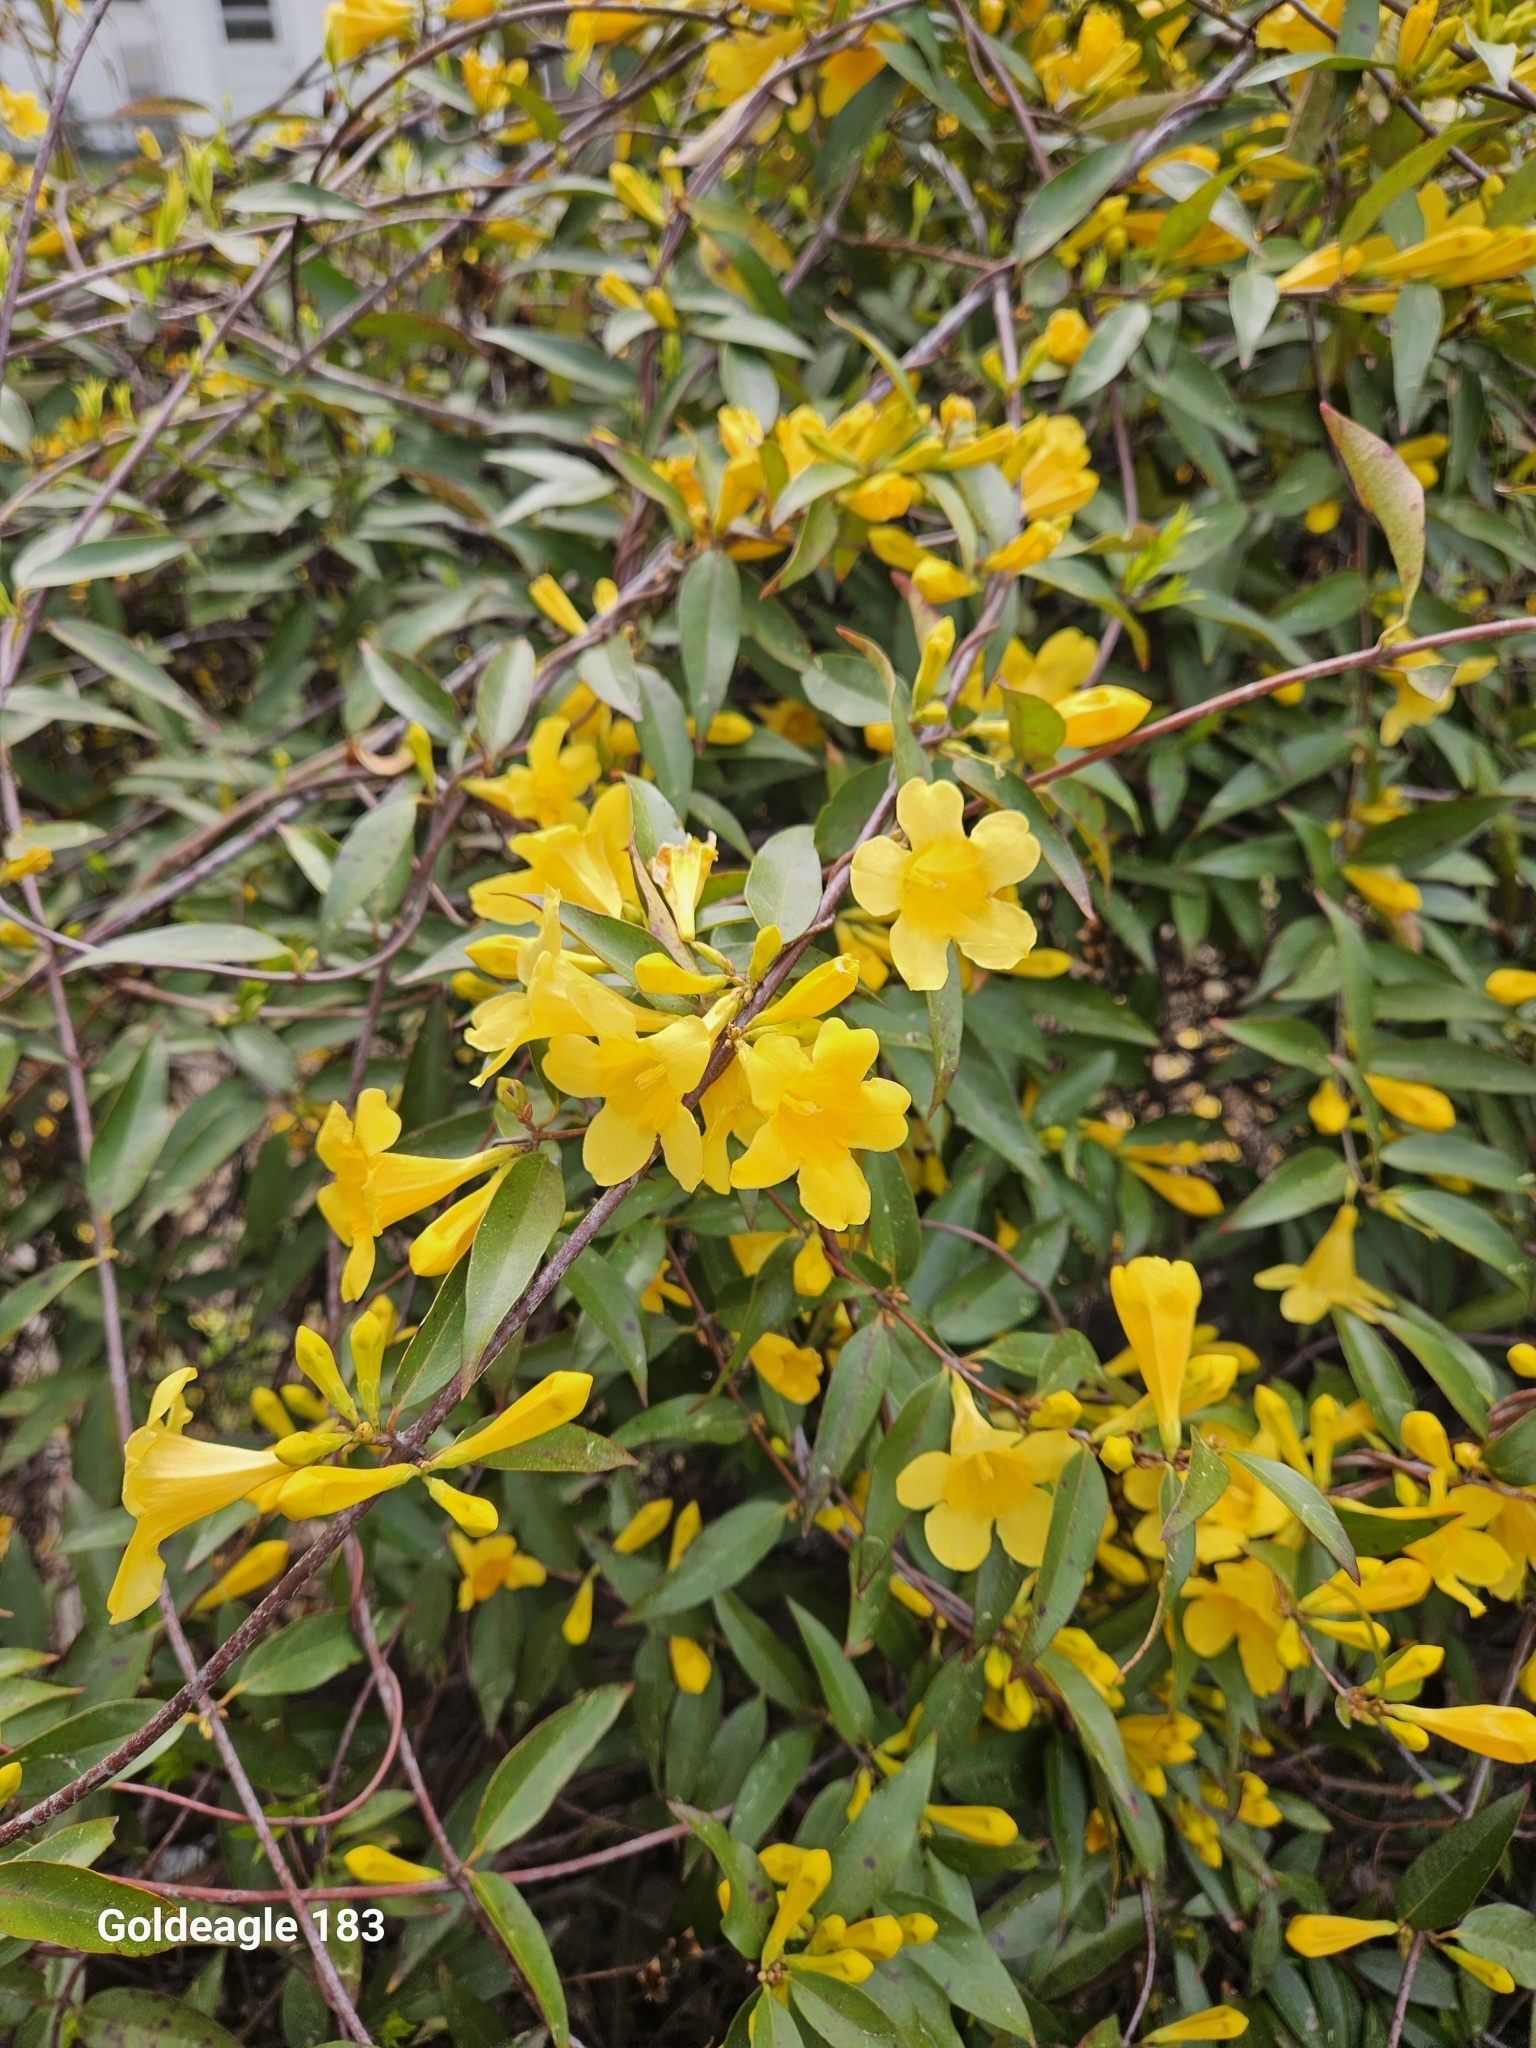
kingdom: Plantae
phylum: Tracheophyta
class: Magnoliopsida
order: Gentianales
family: Gelsemiaceae
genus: Gelsemium
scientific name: Gelsemium sempervirens
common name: Carolina-jasmine
